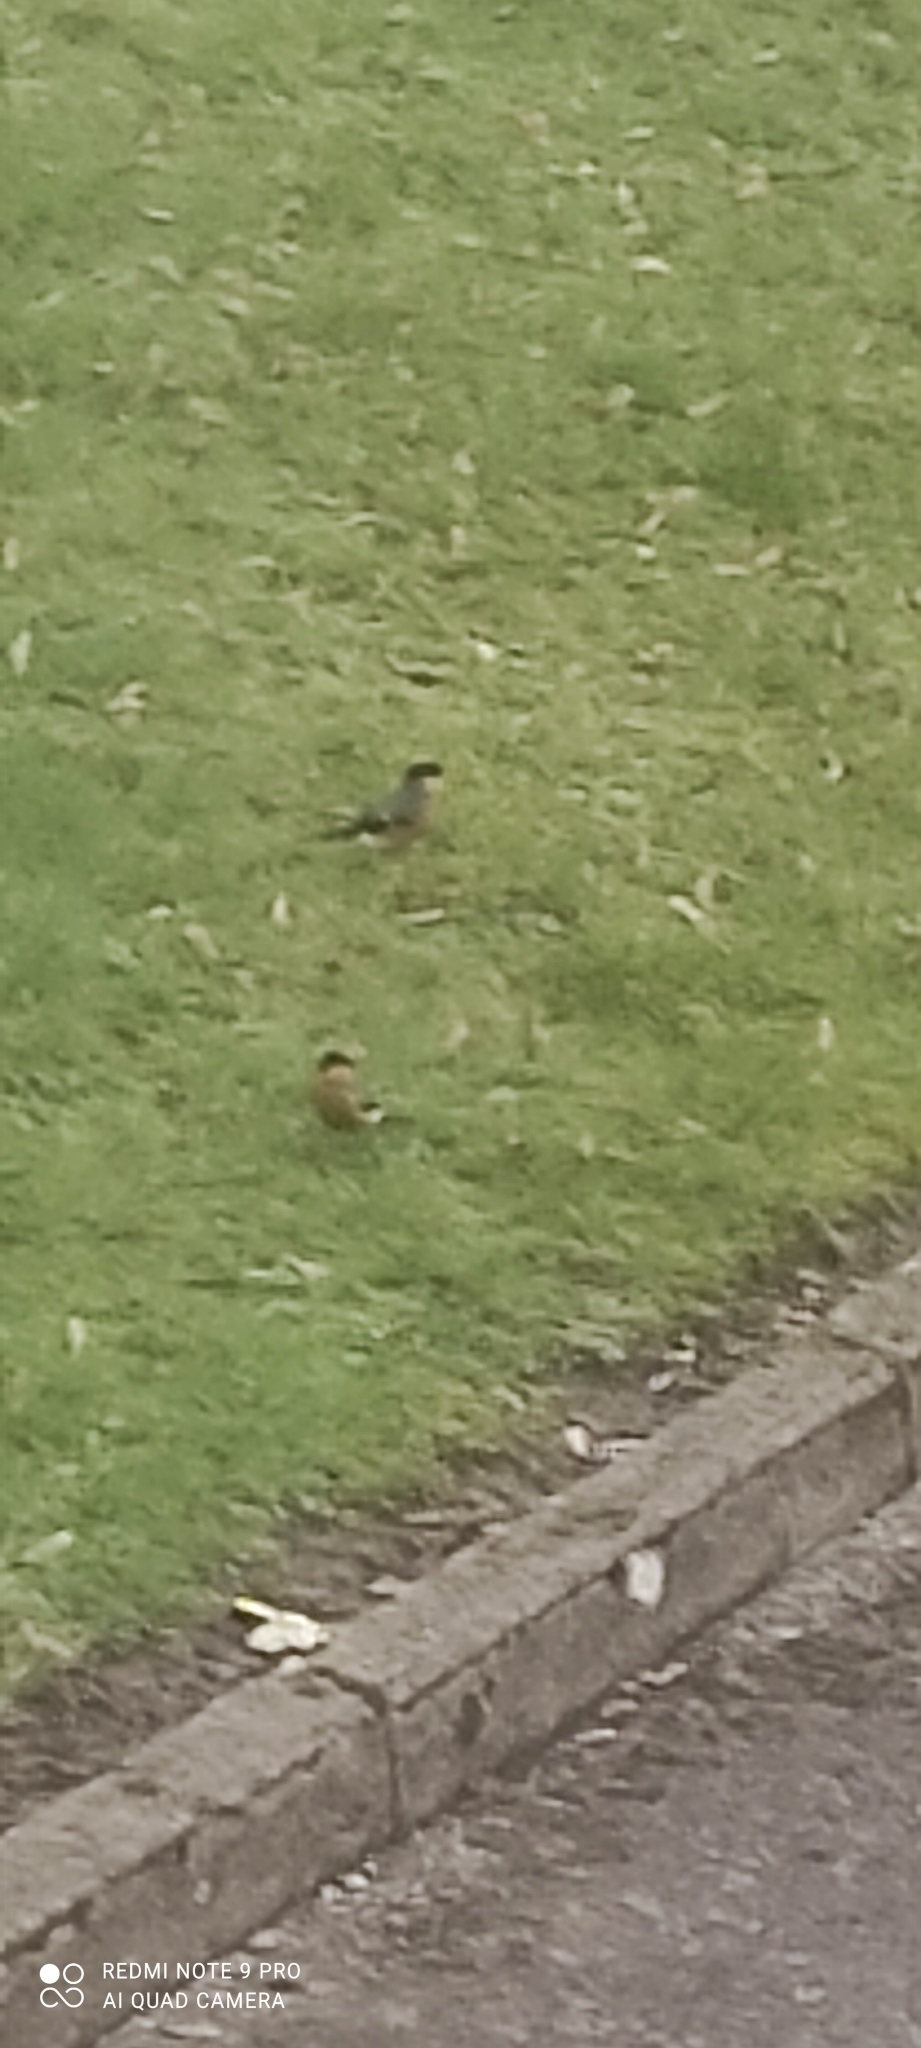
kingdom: Animalia
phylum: Chordata
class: Aves
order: Passeriformes
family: Fringillidae
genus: Pyrrhula
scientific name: Pyrrhula pyrrhula
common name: Eurasian bullfinch
